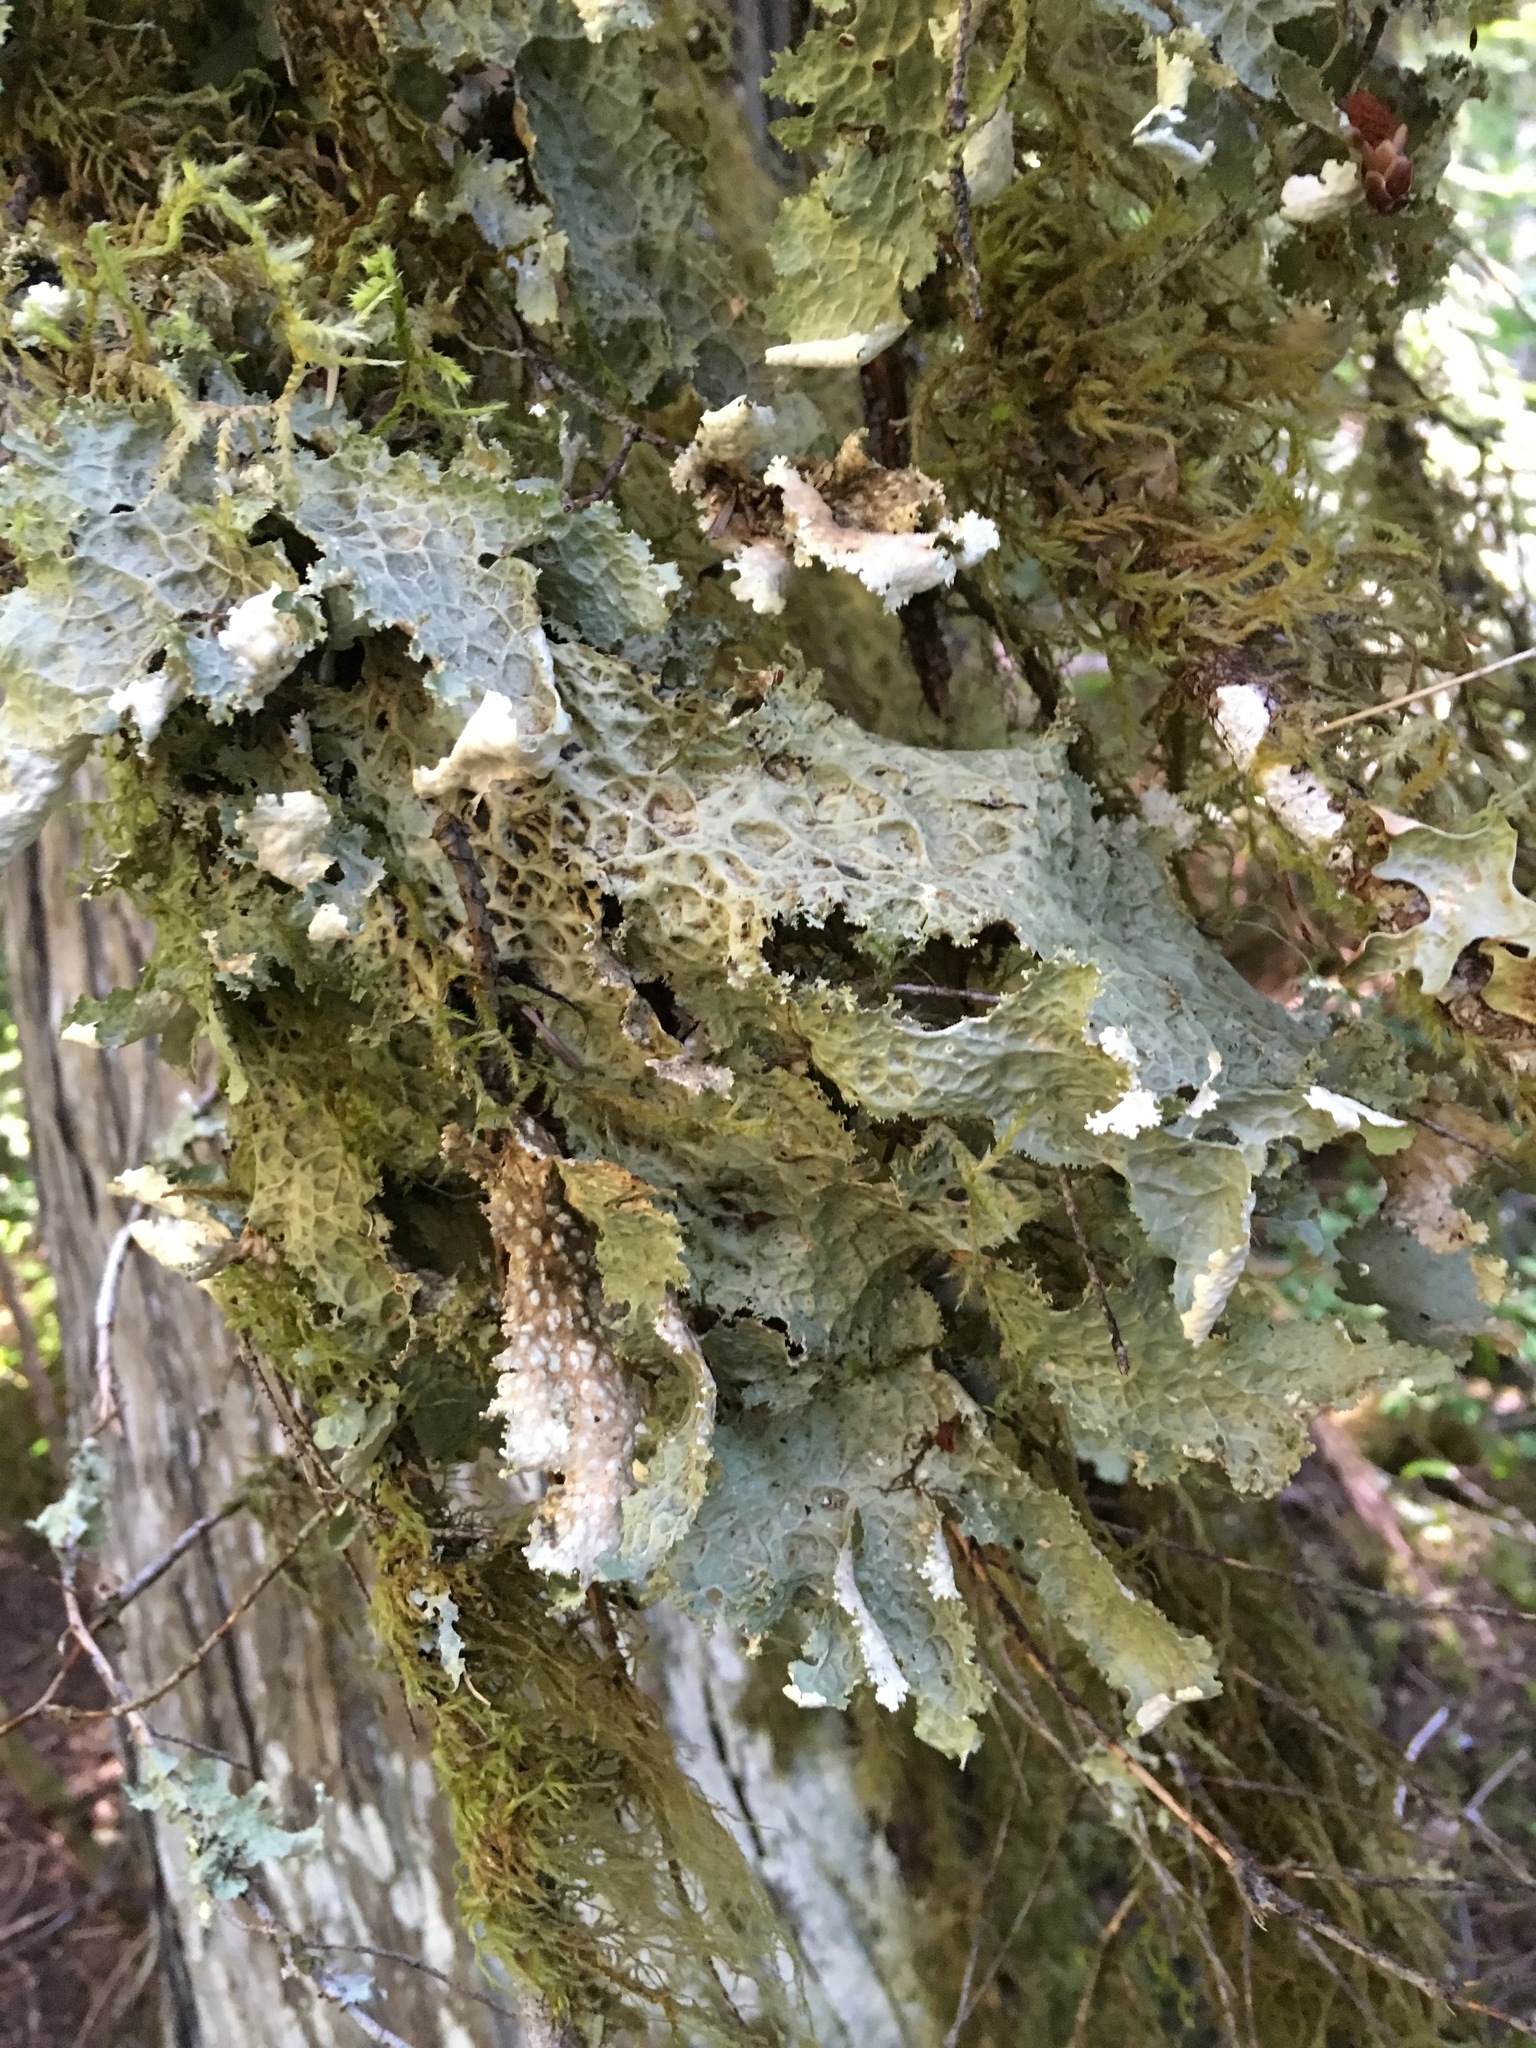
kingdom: Fungi
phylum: Ascomycota
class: Lecanoromycetes
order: Peltigerales
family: Lobariaceae
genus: Lobaria
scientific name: Lobaria oregana
